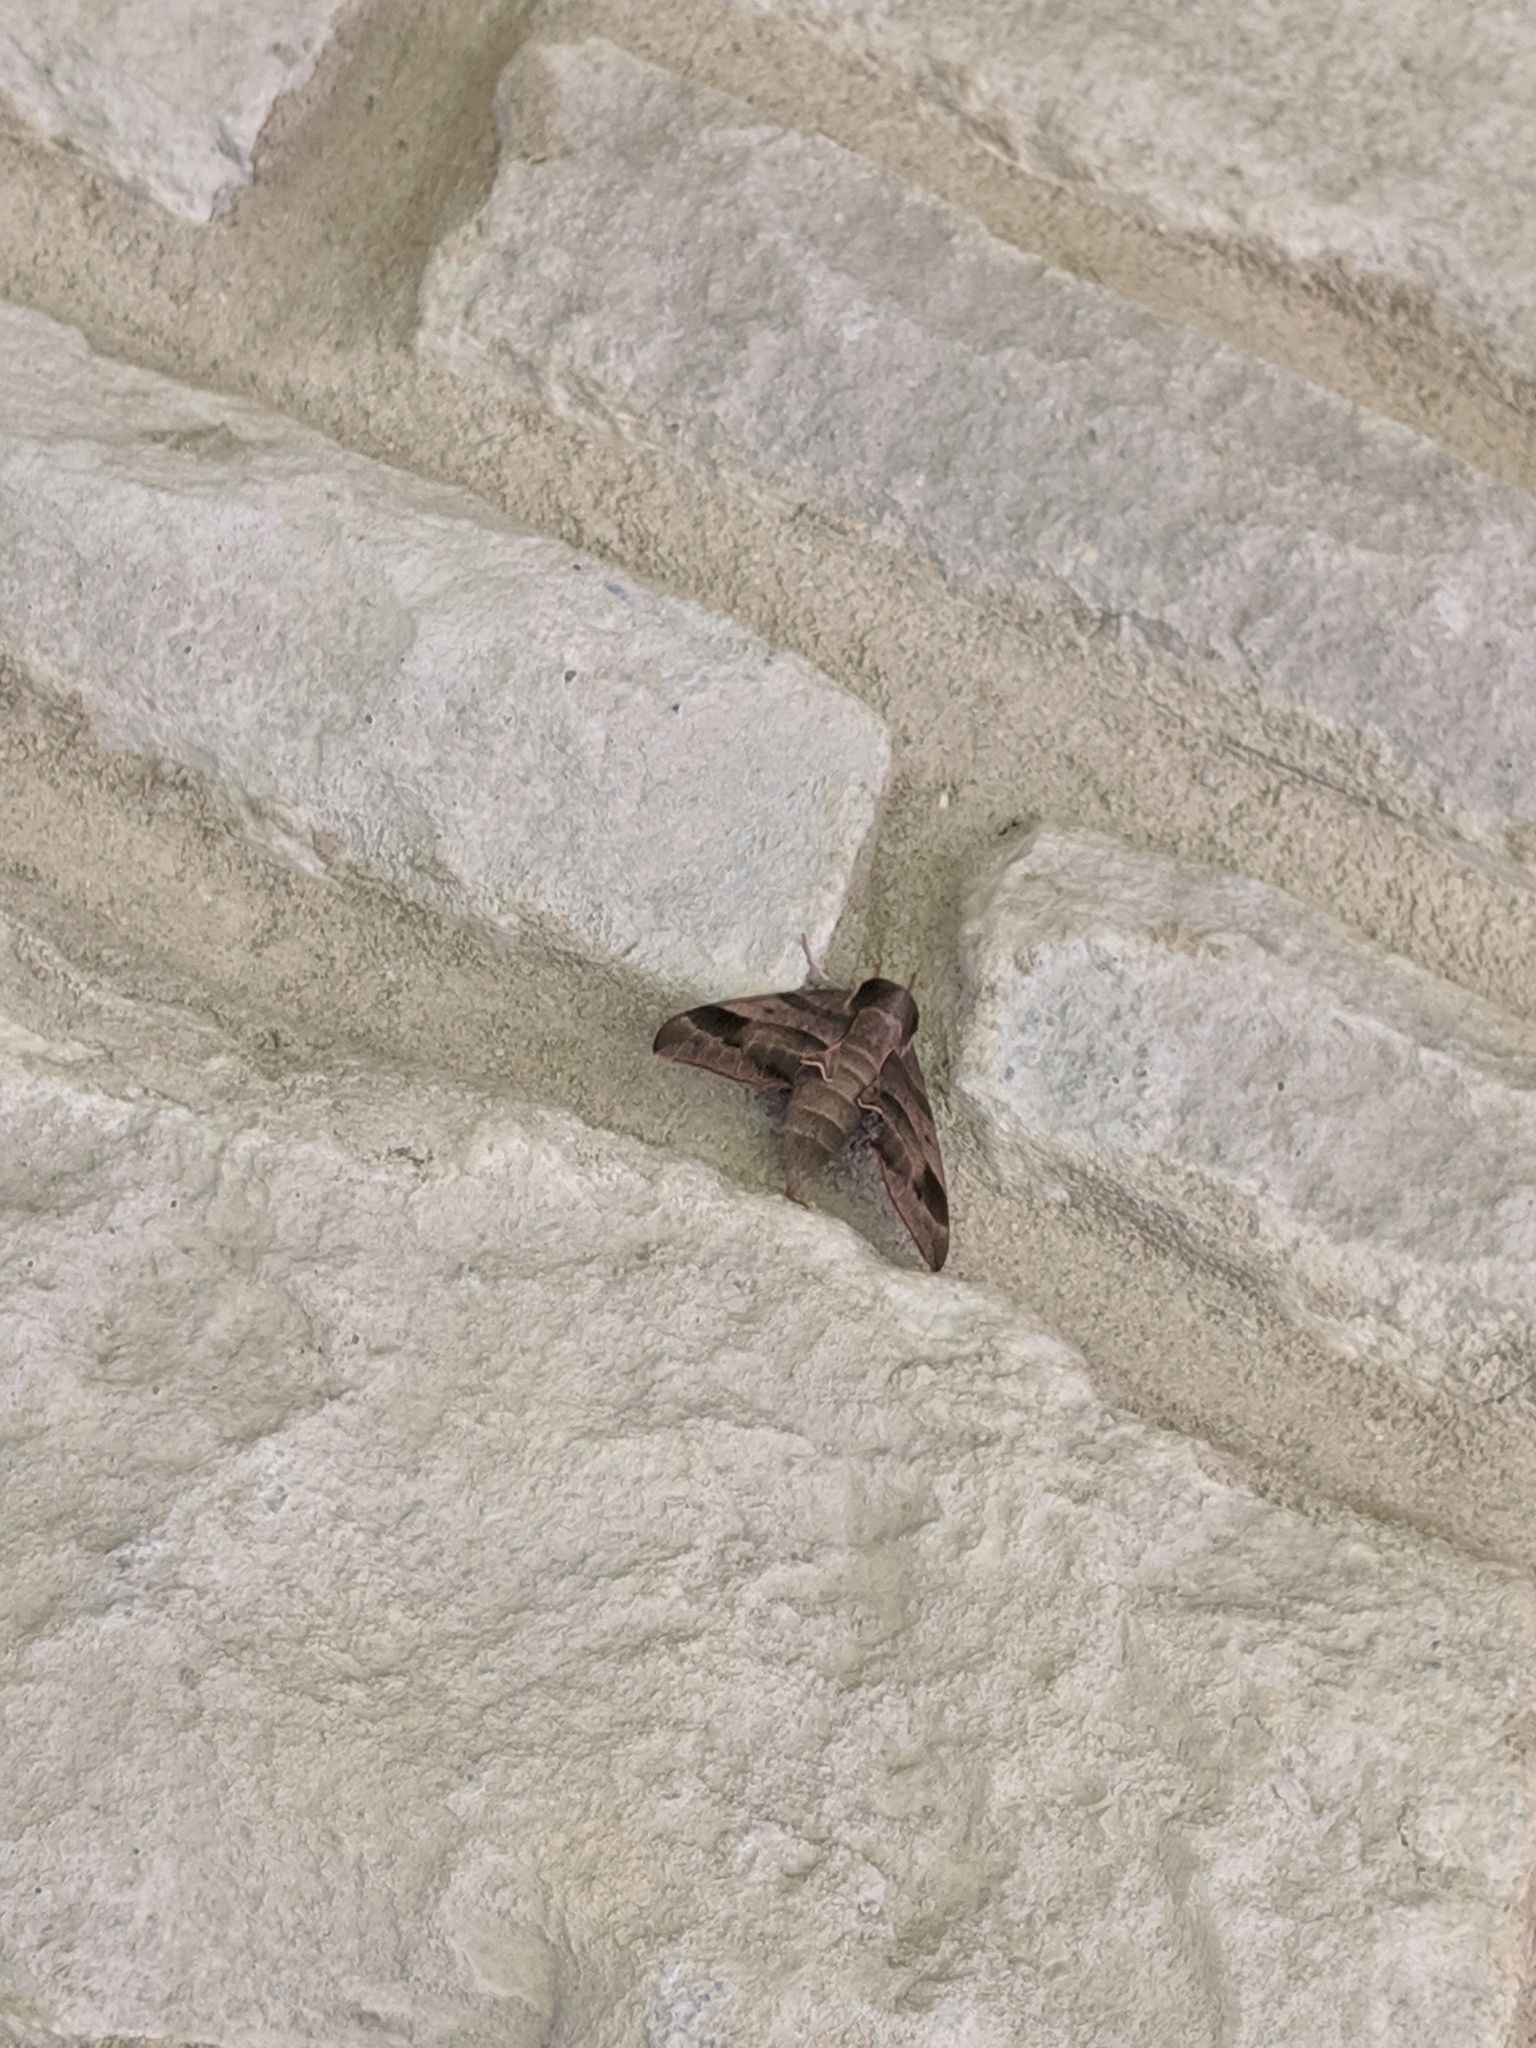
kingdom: Animalia
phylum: Arthropoda
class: Insecta
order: Lepidoptera
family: Sphingidae
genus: Darapsa
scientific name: Darapsa myron
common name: Hog sphinx
